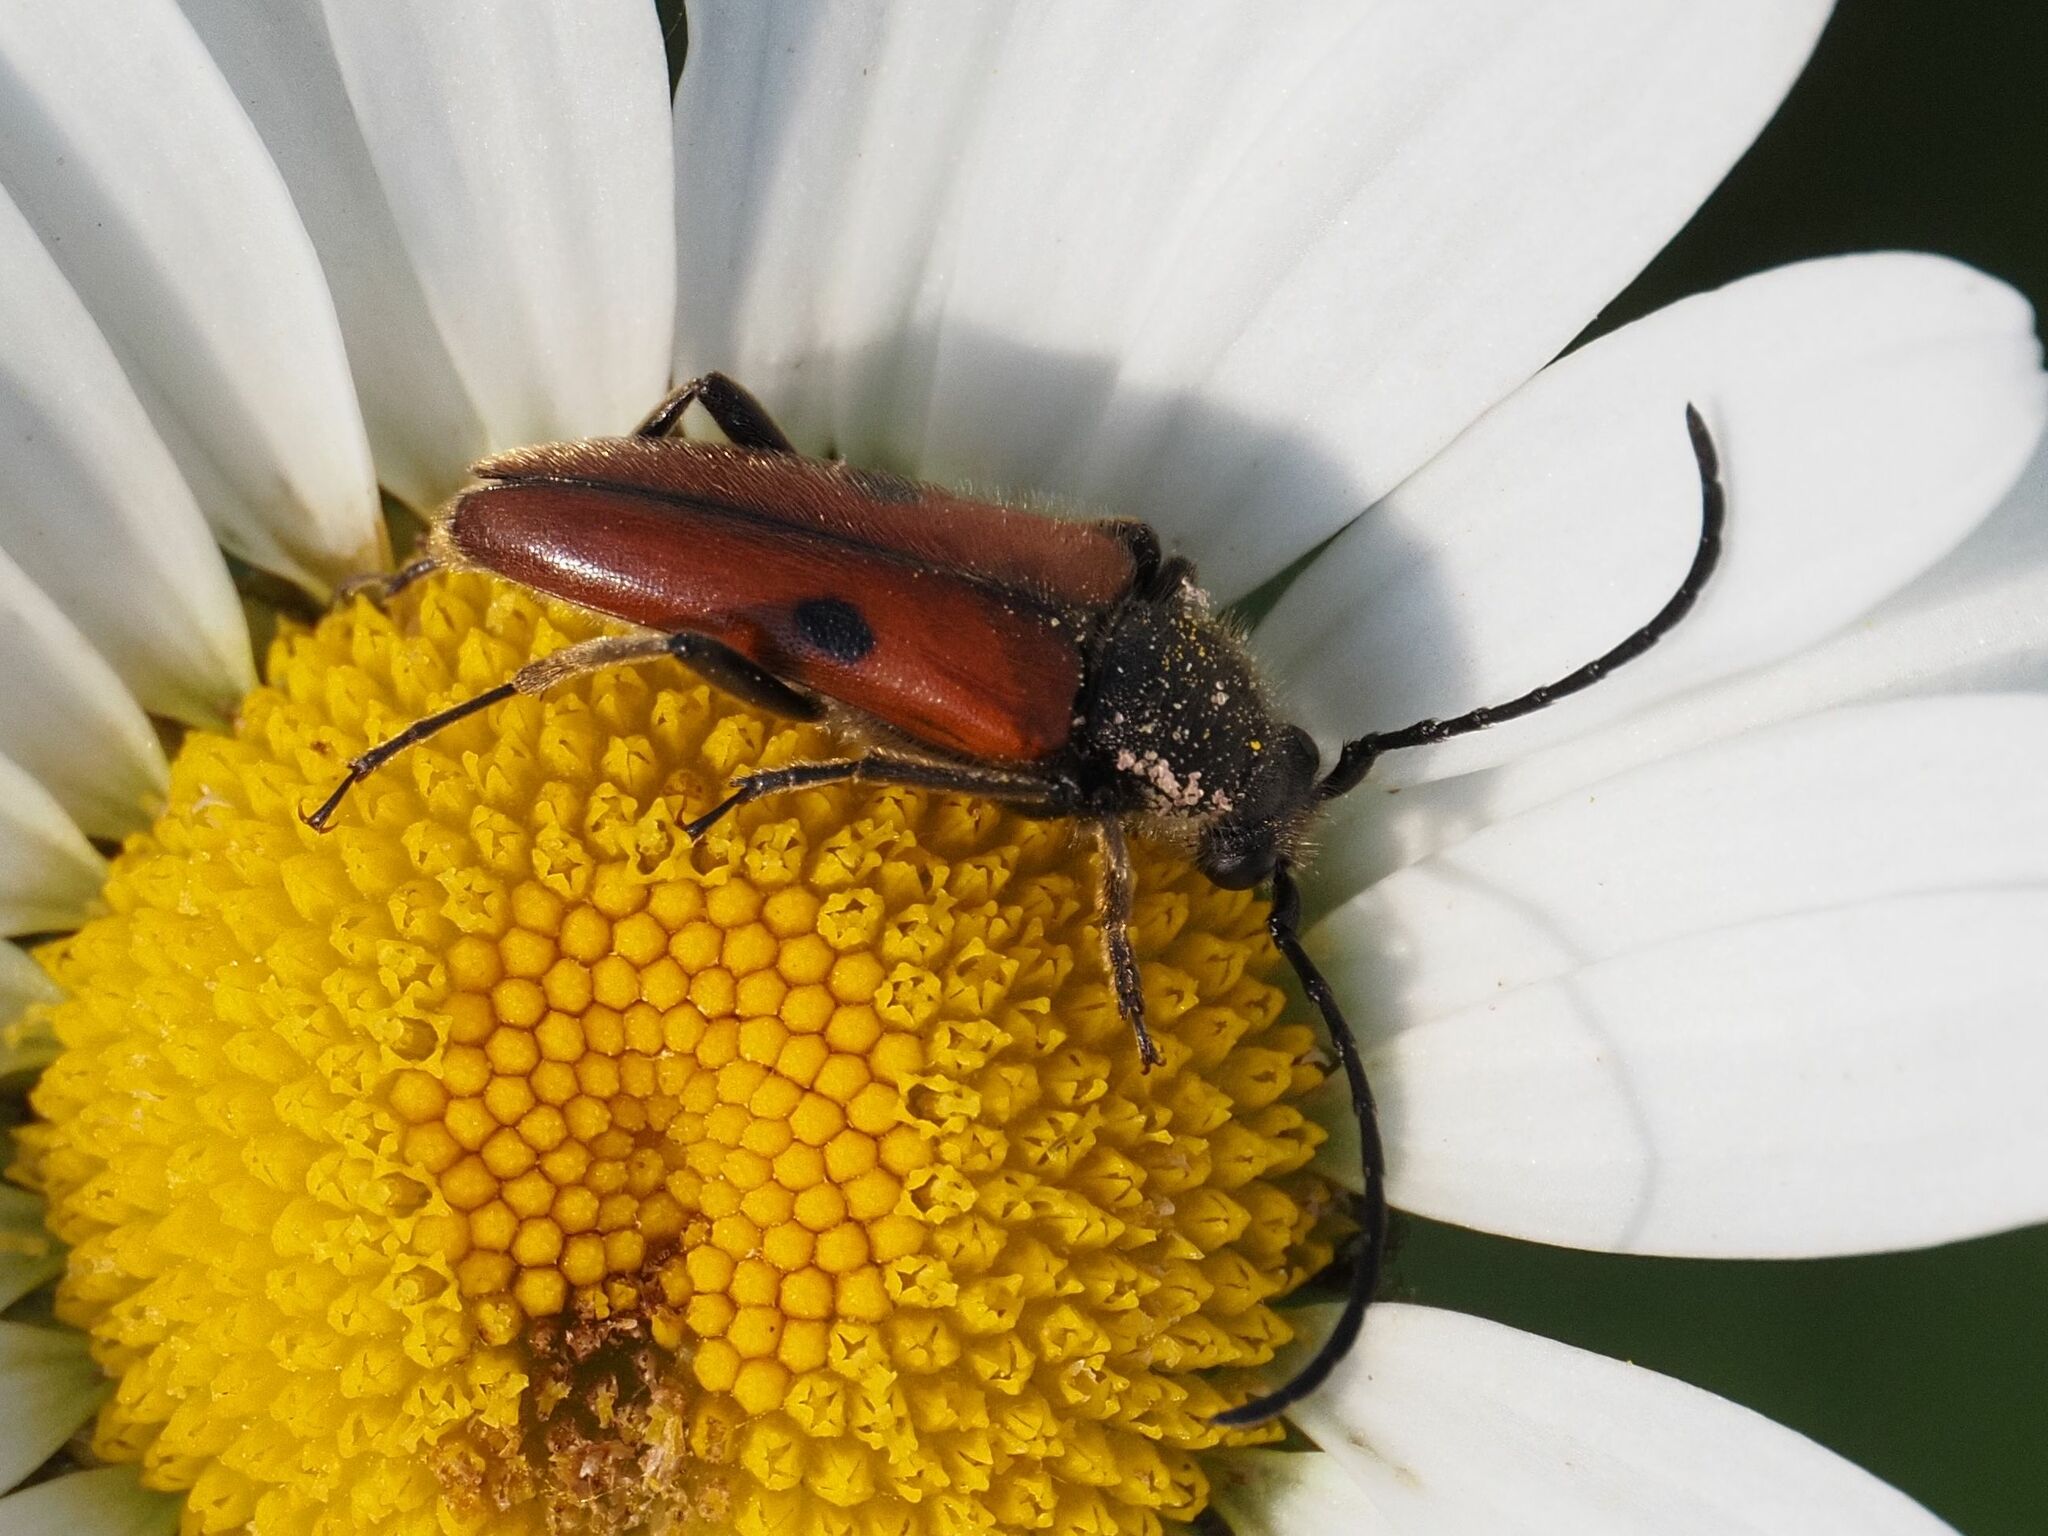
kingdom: Animalia
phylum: Arthropoda
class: Insecta
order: Coleoptera
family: Cerambycidae
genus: Vadonia
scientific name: Vadonia unipunctata
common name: Long-horned beetle
